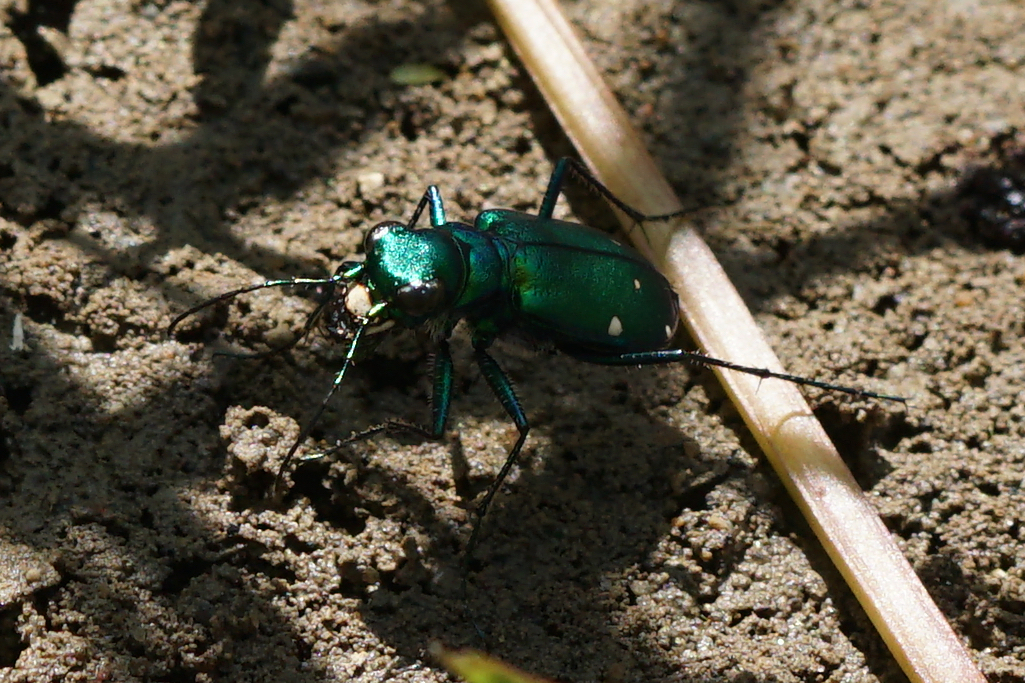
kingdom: Animalia
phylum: Arthropoda
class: Insecta
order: Coleoptera
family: Carabidae
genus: Cicindela
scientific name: Cicindela sexguttata
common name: Six-spotted tiger beetle
